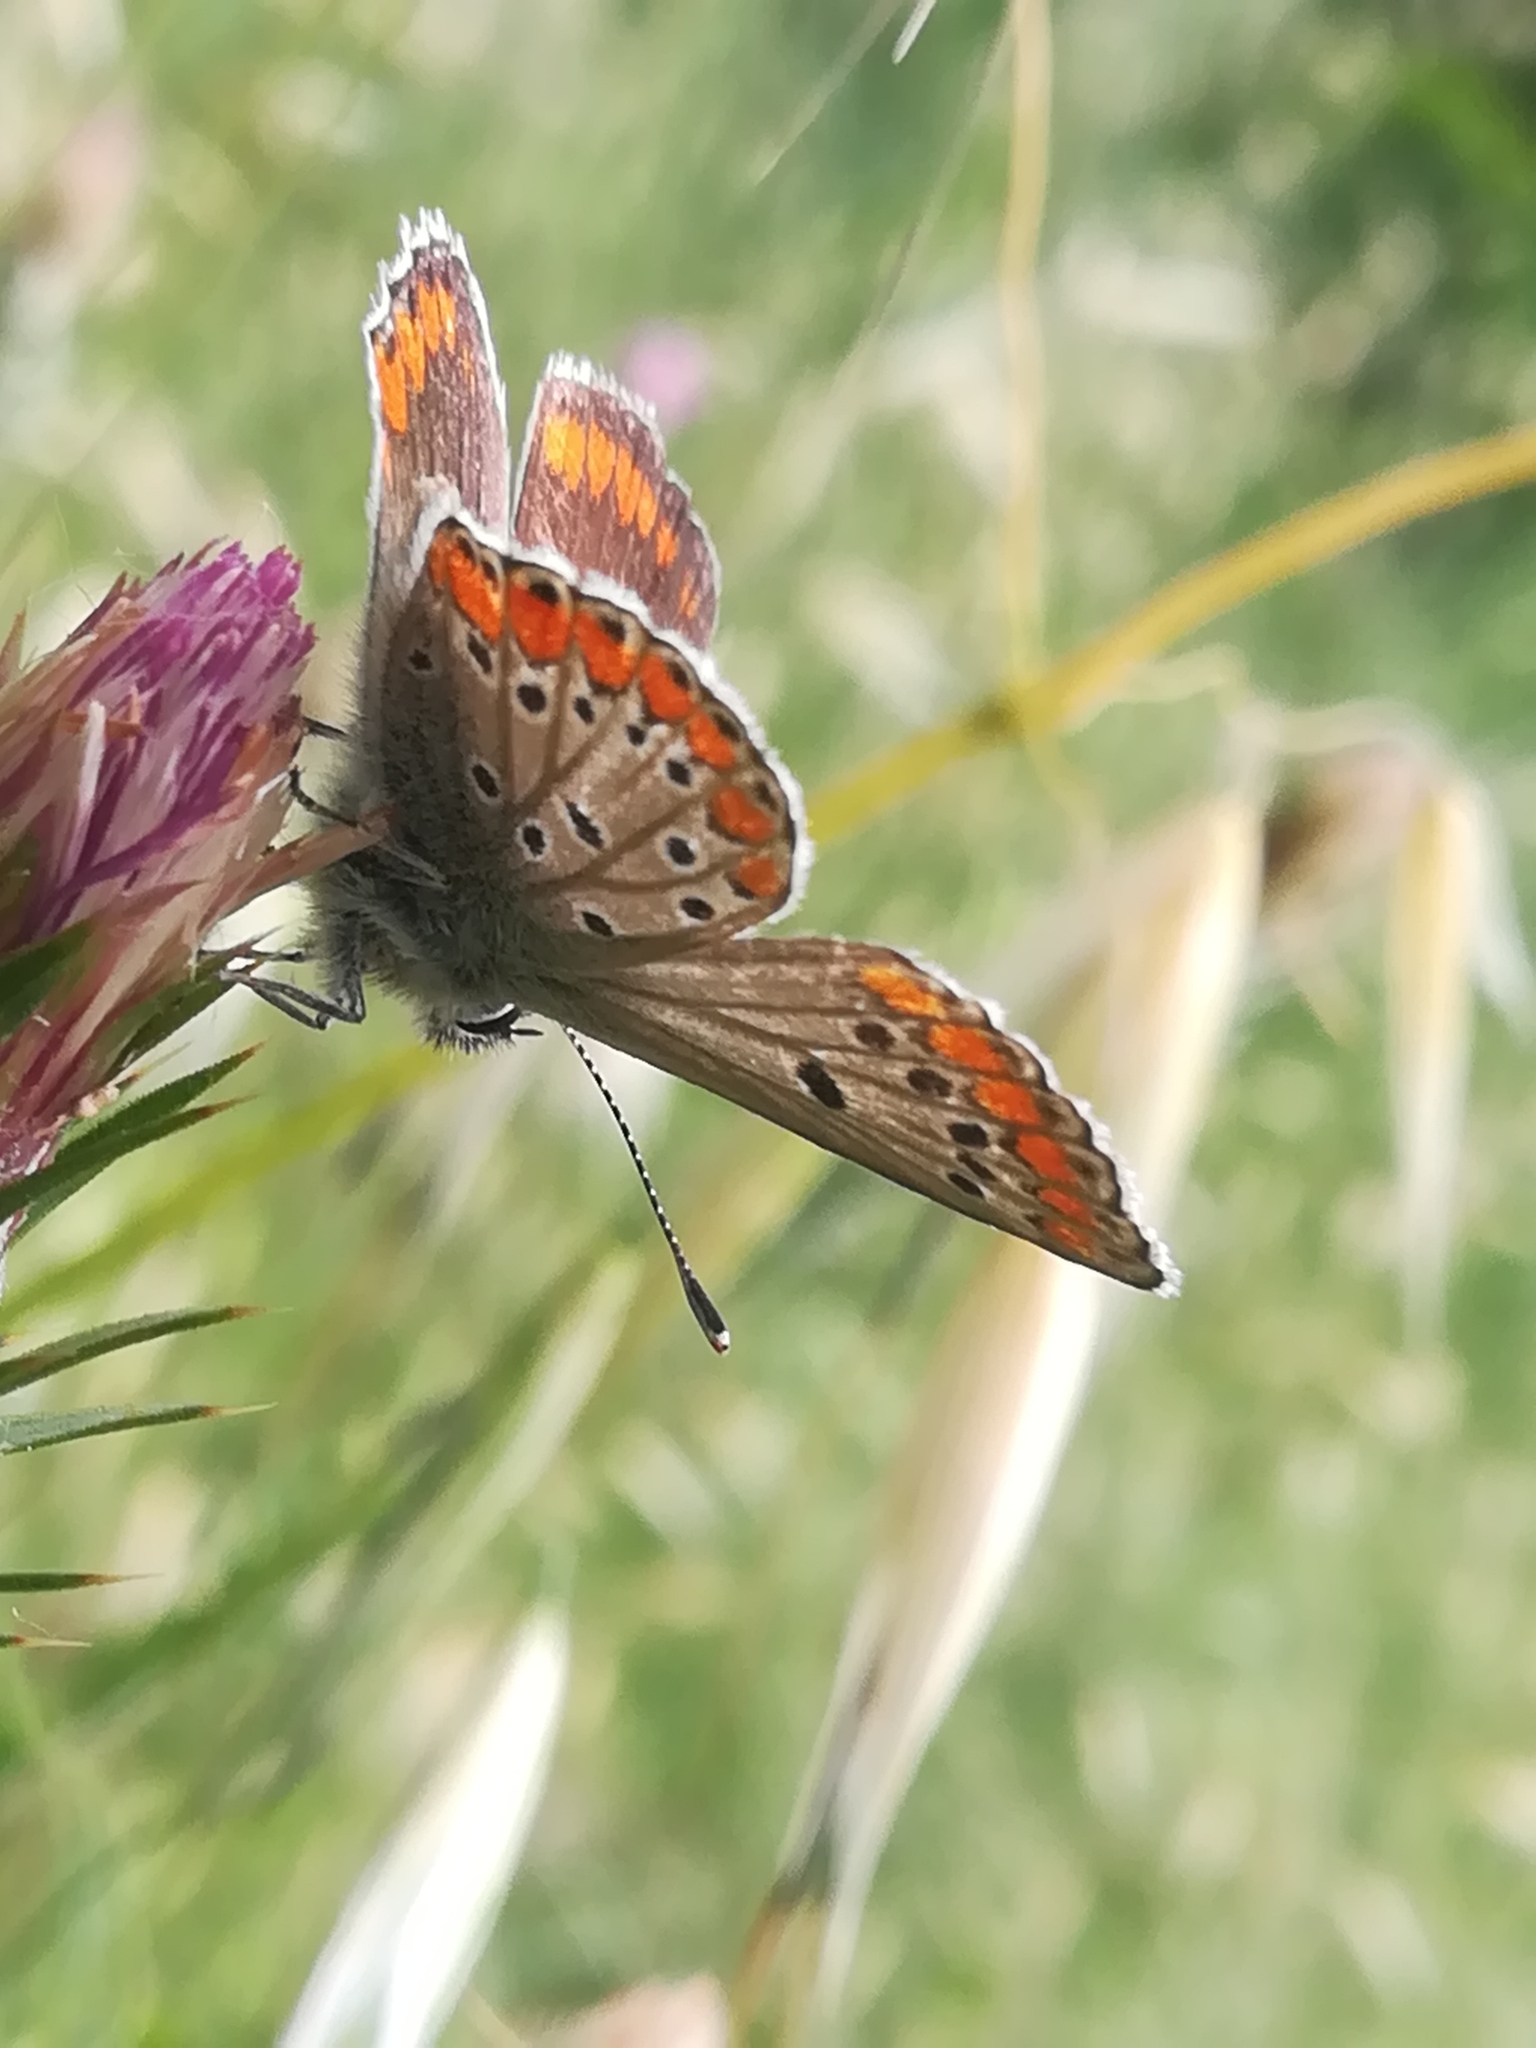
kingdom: Animalia
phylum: Arthropoda
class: Insecta
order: Lepidoptera
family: Lycaenidae
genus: Aricia
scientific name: Aricia agestis
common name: Brown argus
